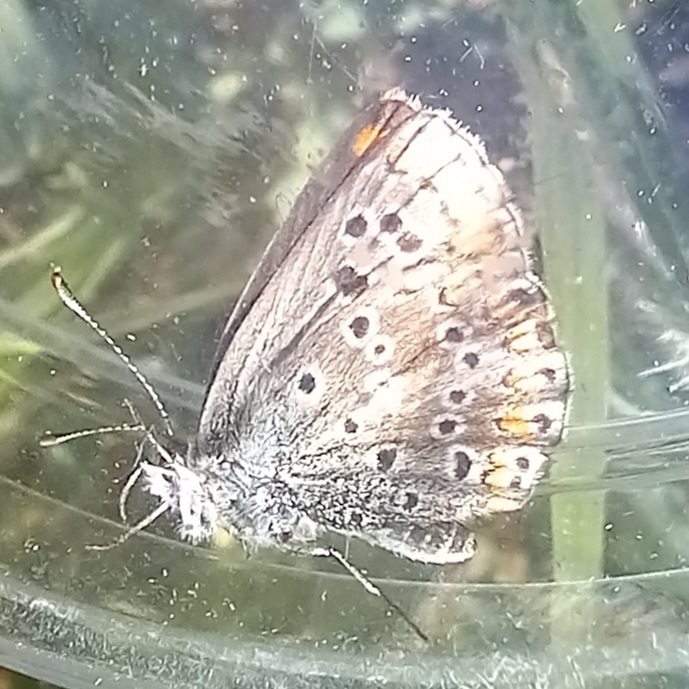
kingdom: Animalia
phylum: Arthropoda
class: Insecta
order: Lepidoptera
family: Lycaenidae
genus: Aricia
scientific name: Aricia cramera
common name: Eschscholtz´s brown  argus
